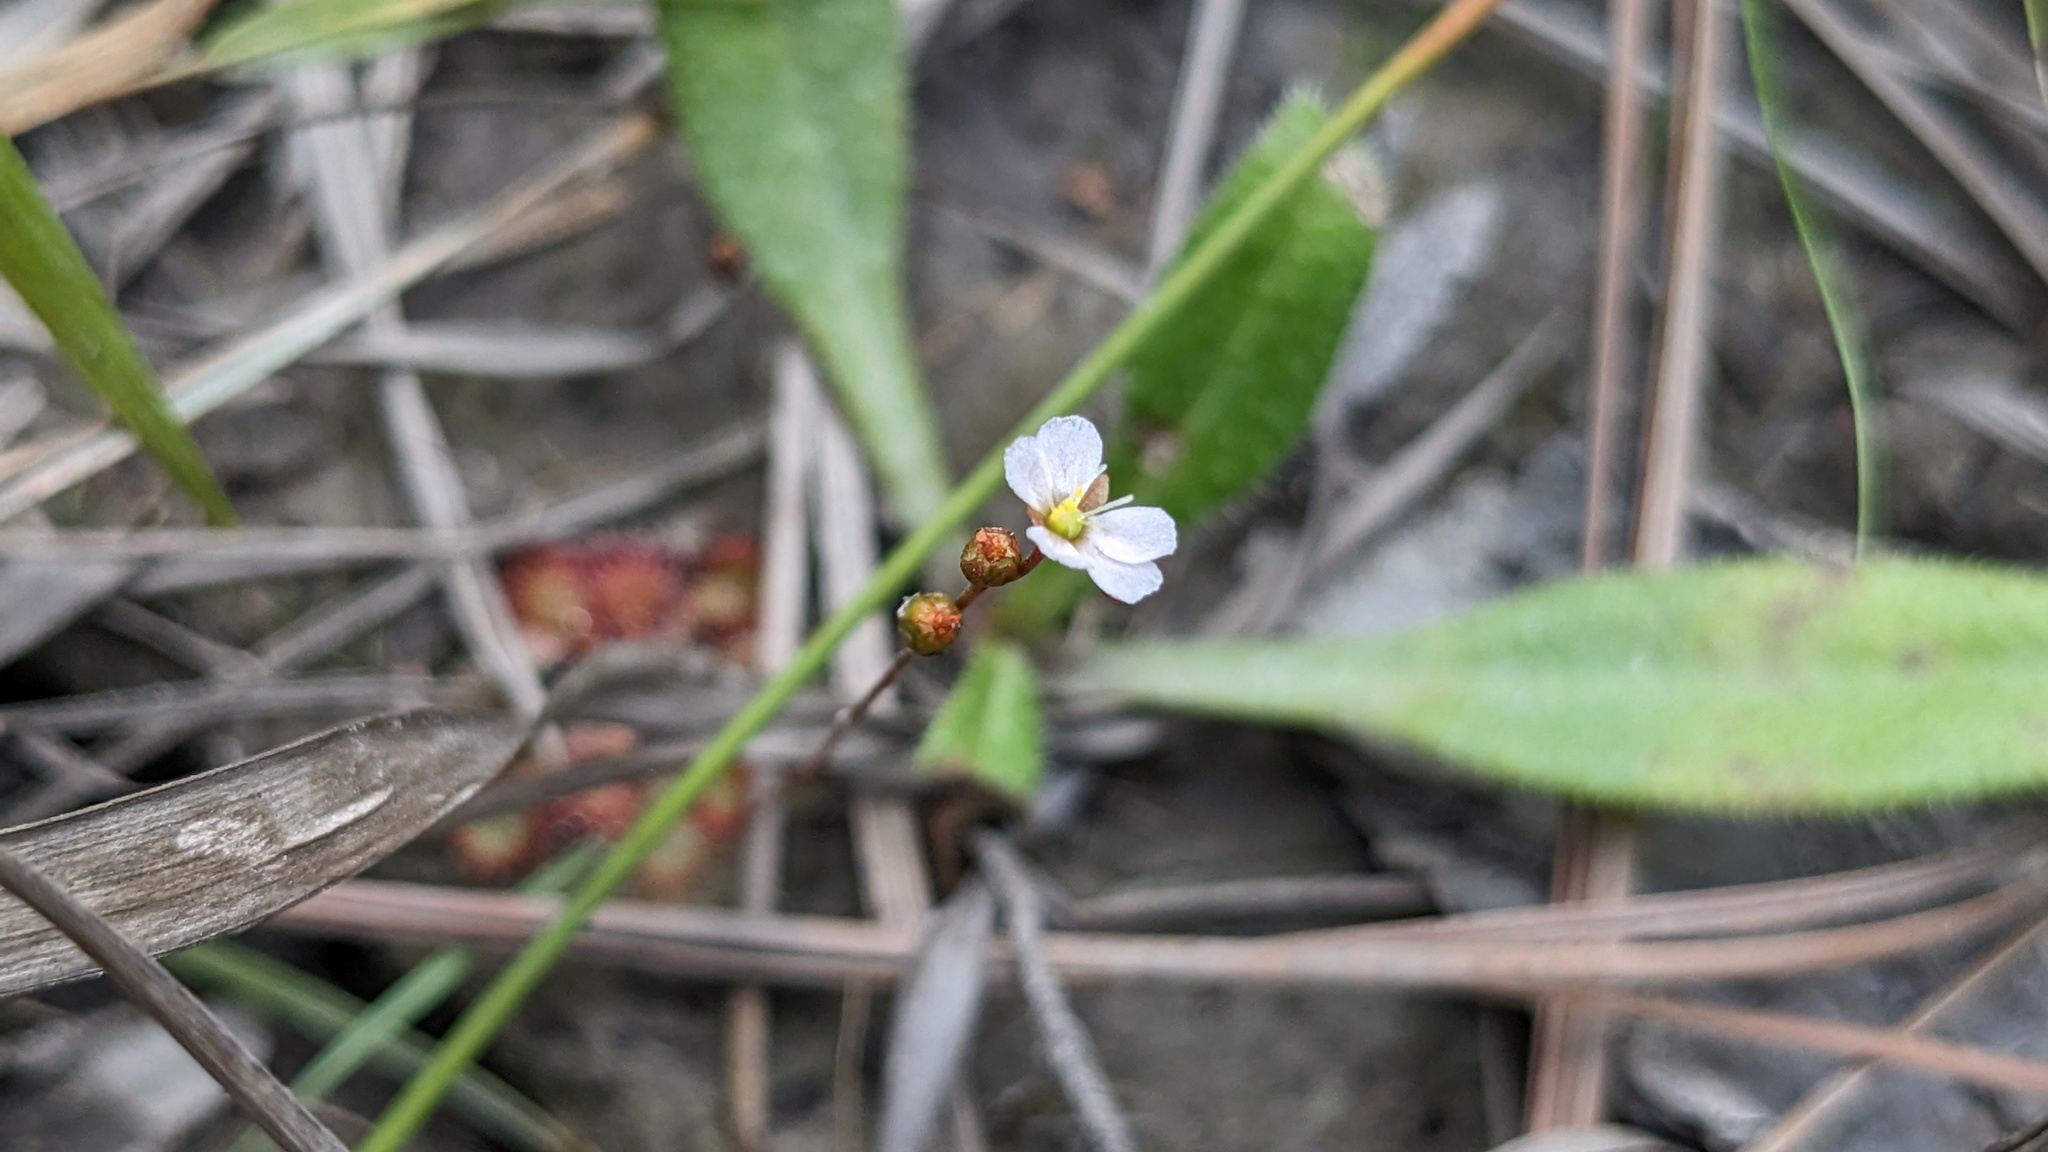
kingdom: Plantae
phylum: Tracheophyta
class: Magnoliopsida
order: Caryophyllales
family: Droseraceae
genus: Drosera
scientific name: Drosera capillaris
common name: Pink sundew
